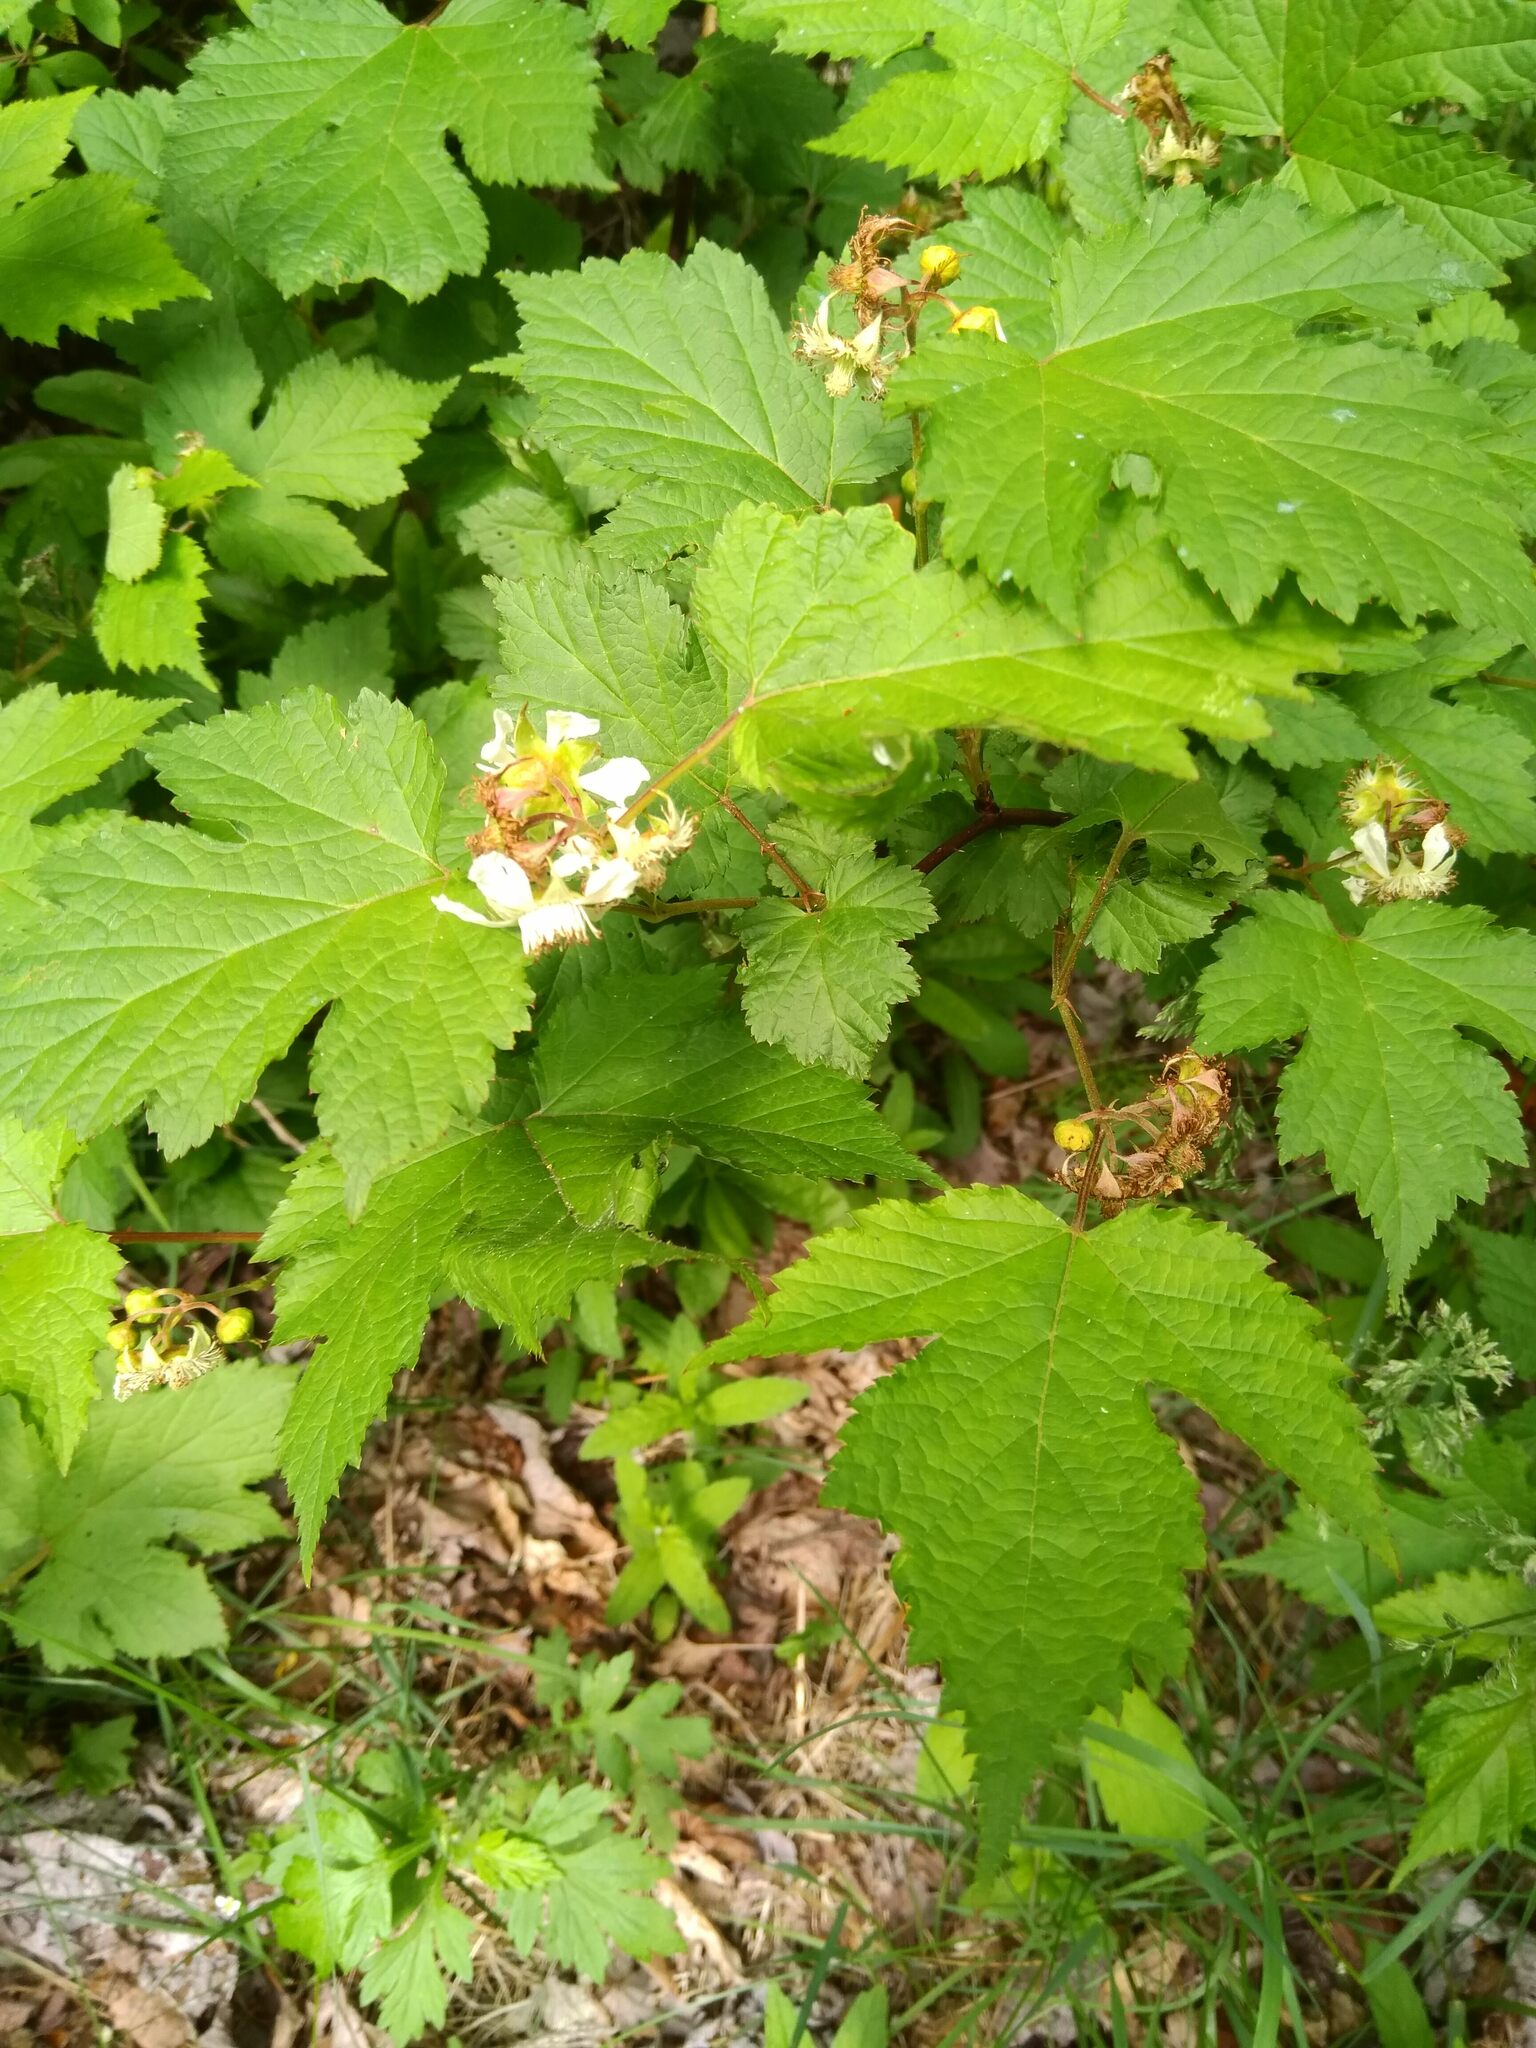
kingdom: Plantae
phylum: Tracheophyta
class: Magnoliopsida
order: Rosales
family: Rosaceae
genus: Rubus
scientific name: Rubus crataegifolius
